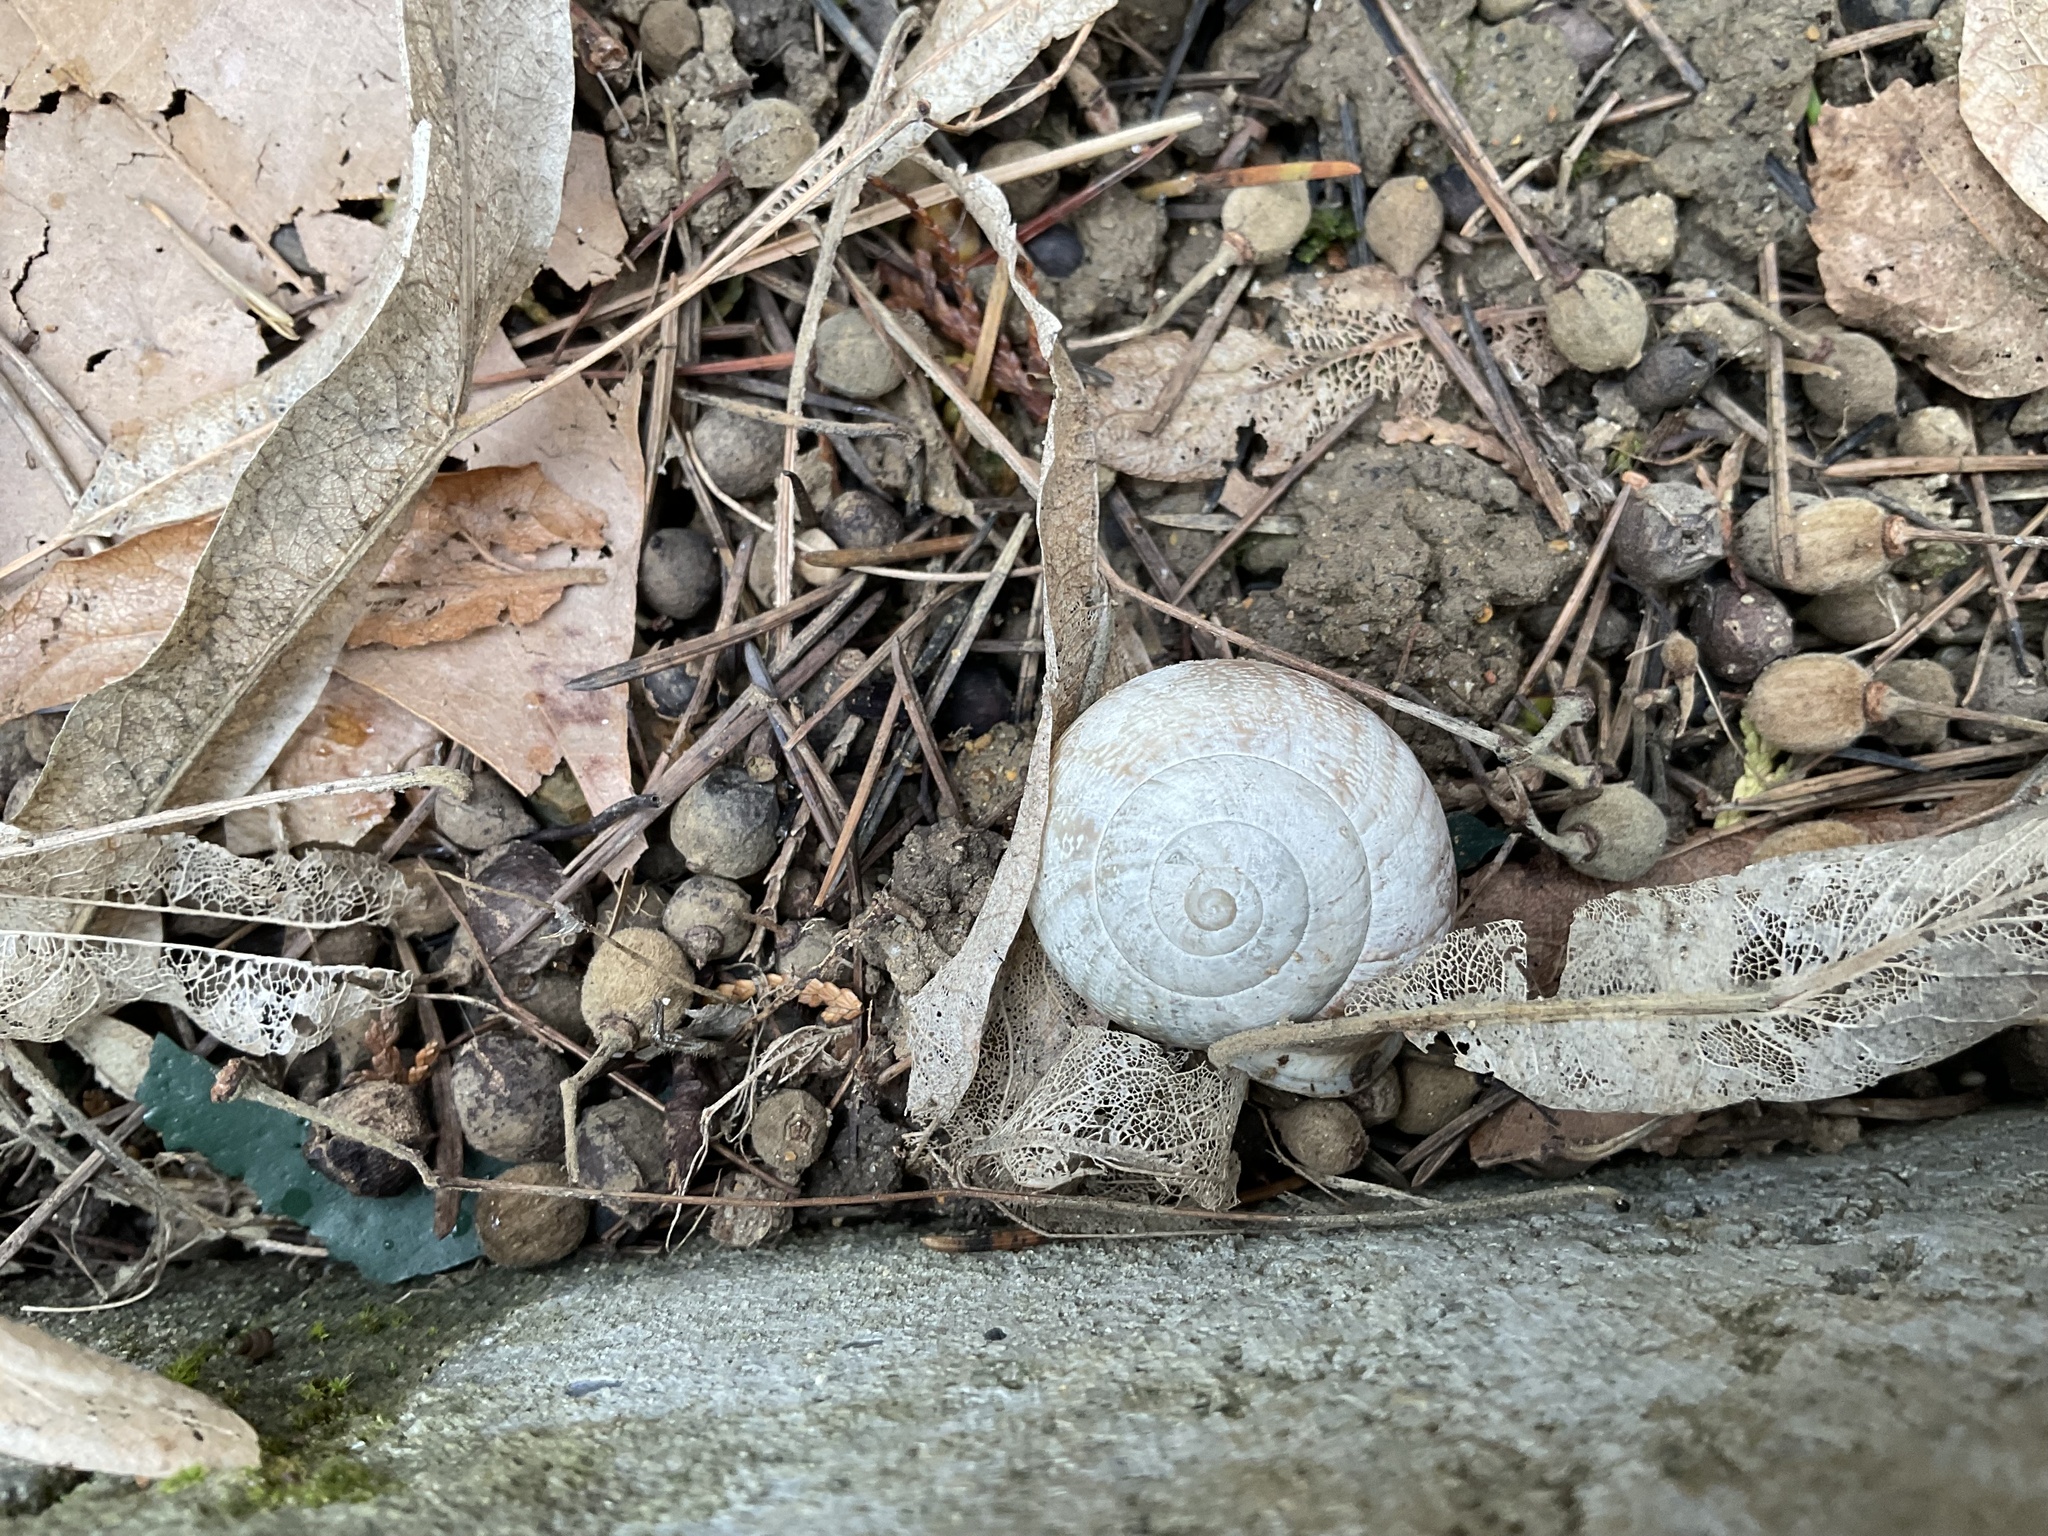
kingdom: Animalia
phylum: Mollusca
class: Gastropoda
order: Stylommatophora
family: Helicidae
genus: Eobania
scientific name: Eobania vermiculata
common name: Chocolateband snail
